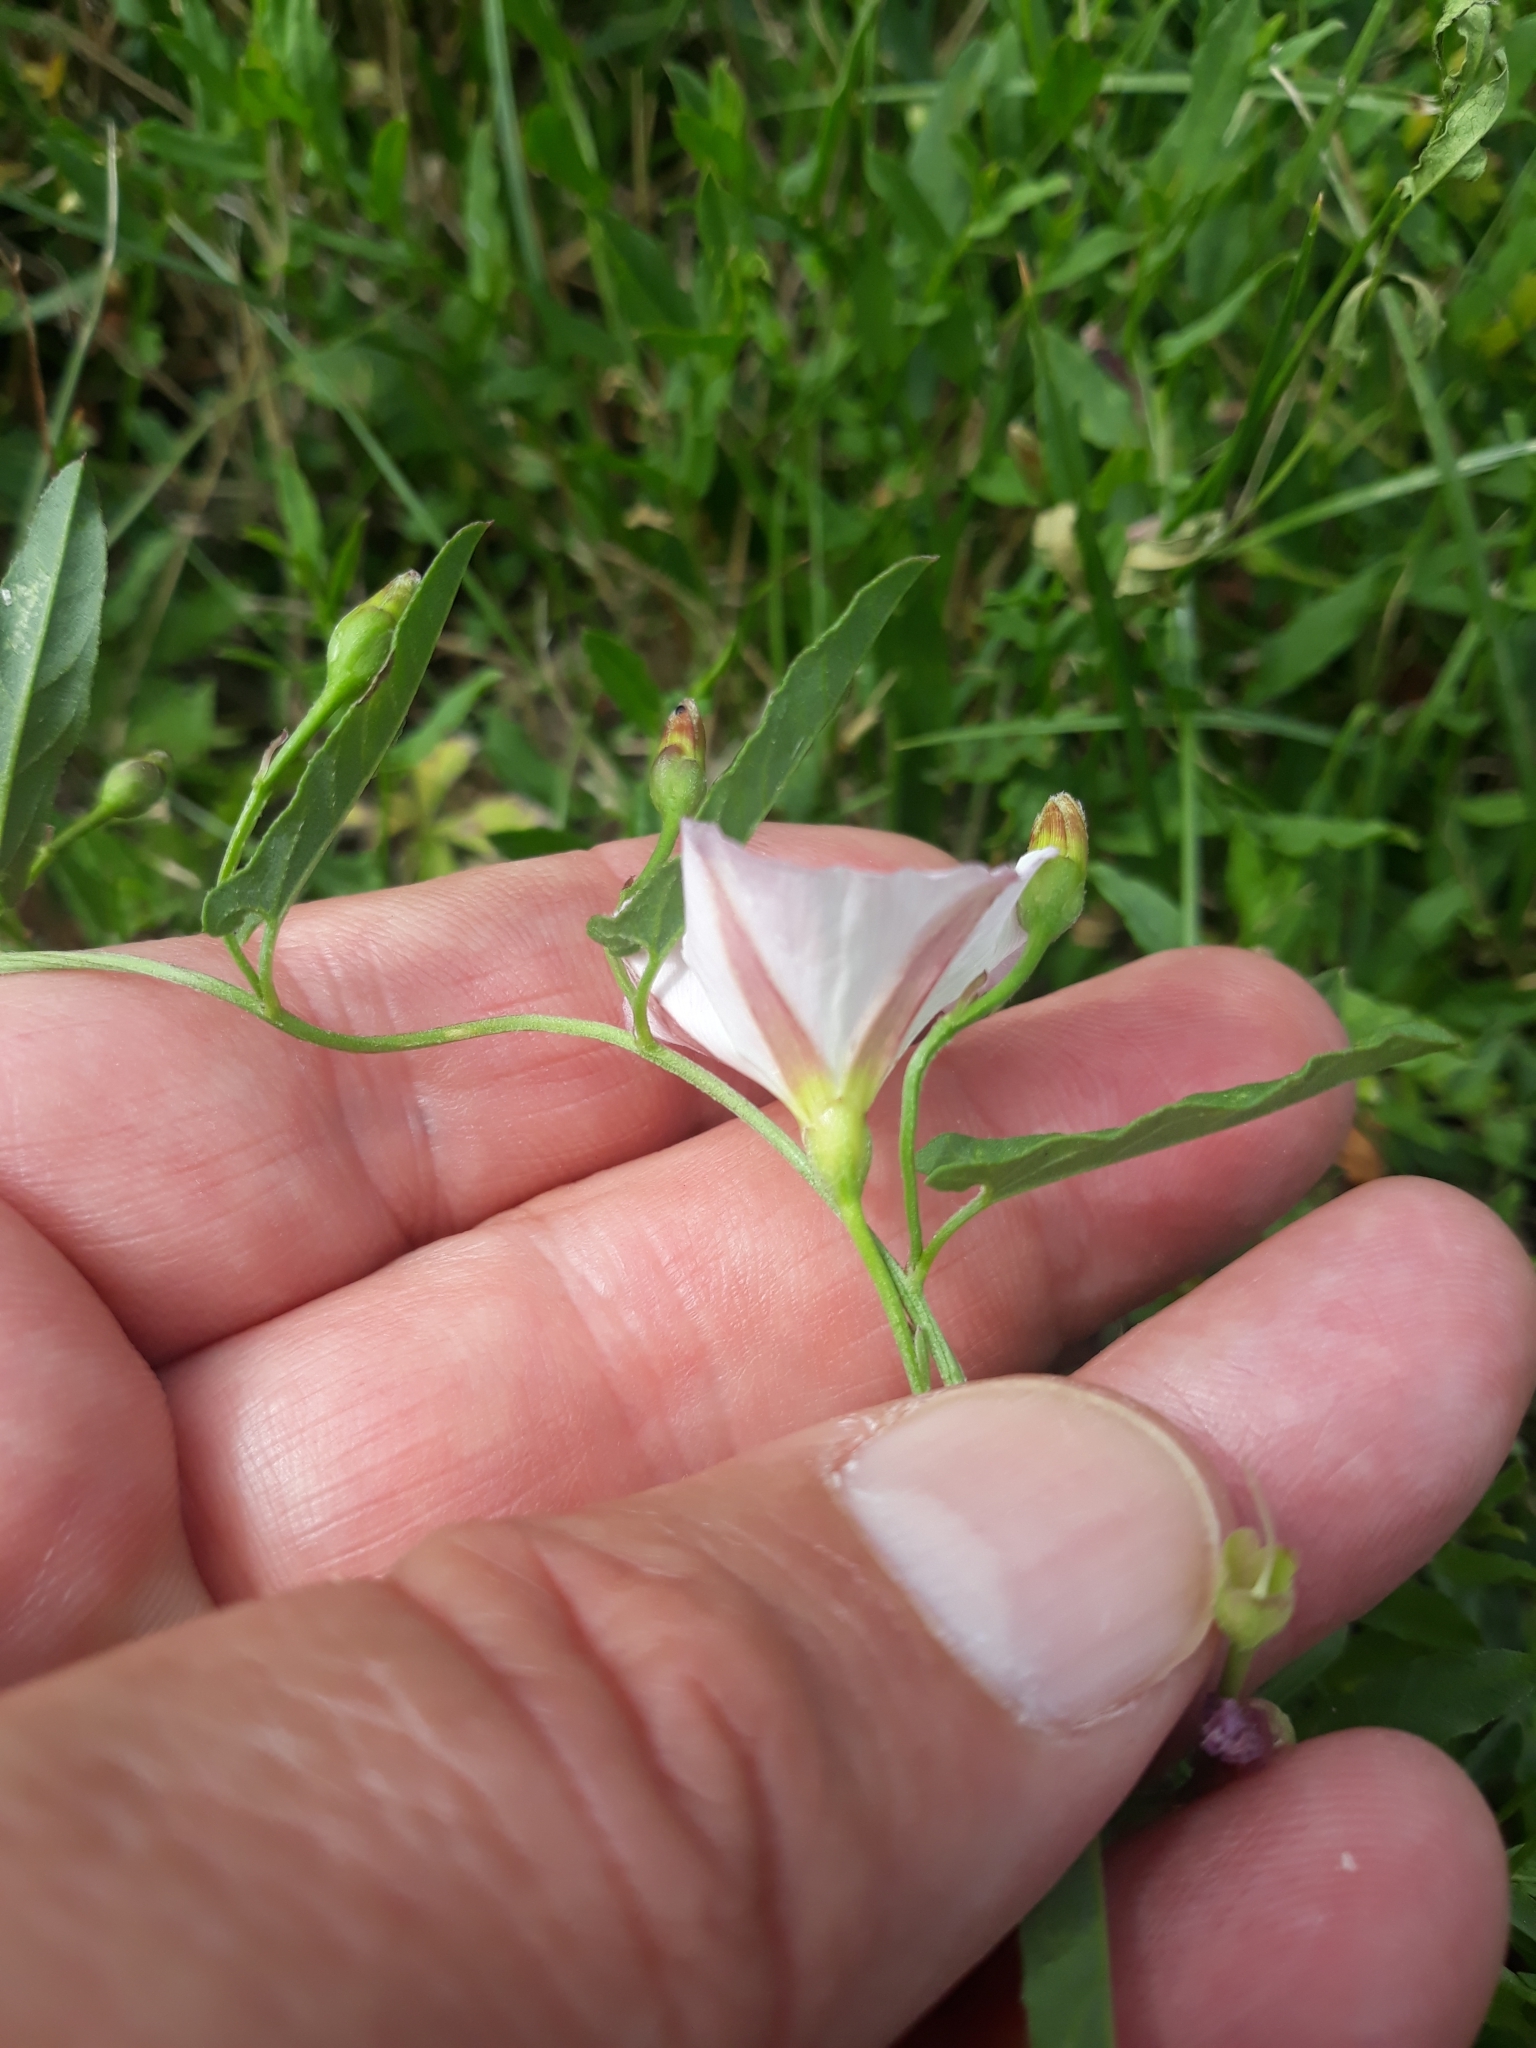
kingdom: Plantae
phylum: Tracheophyta
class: Magnoliopsida
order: Solanales
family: Convolvulaceae
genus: Convolvulus
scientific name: Convolvulus arvensis
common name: Field bindweed
